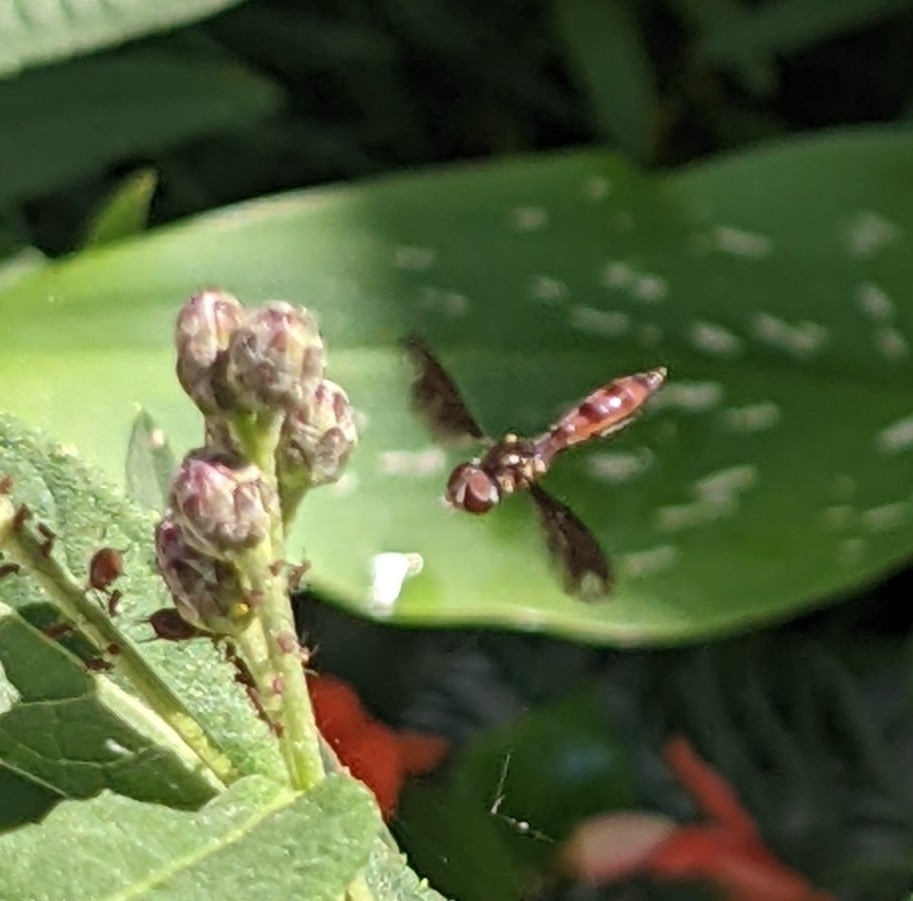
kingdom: Animalia
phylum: Arthropoda
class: Insecta
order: Diptera
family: Syrphidae
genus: Ocyptamus
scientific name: Ocyptamus fuscipennis
